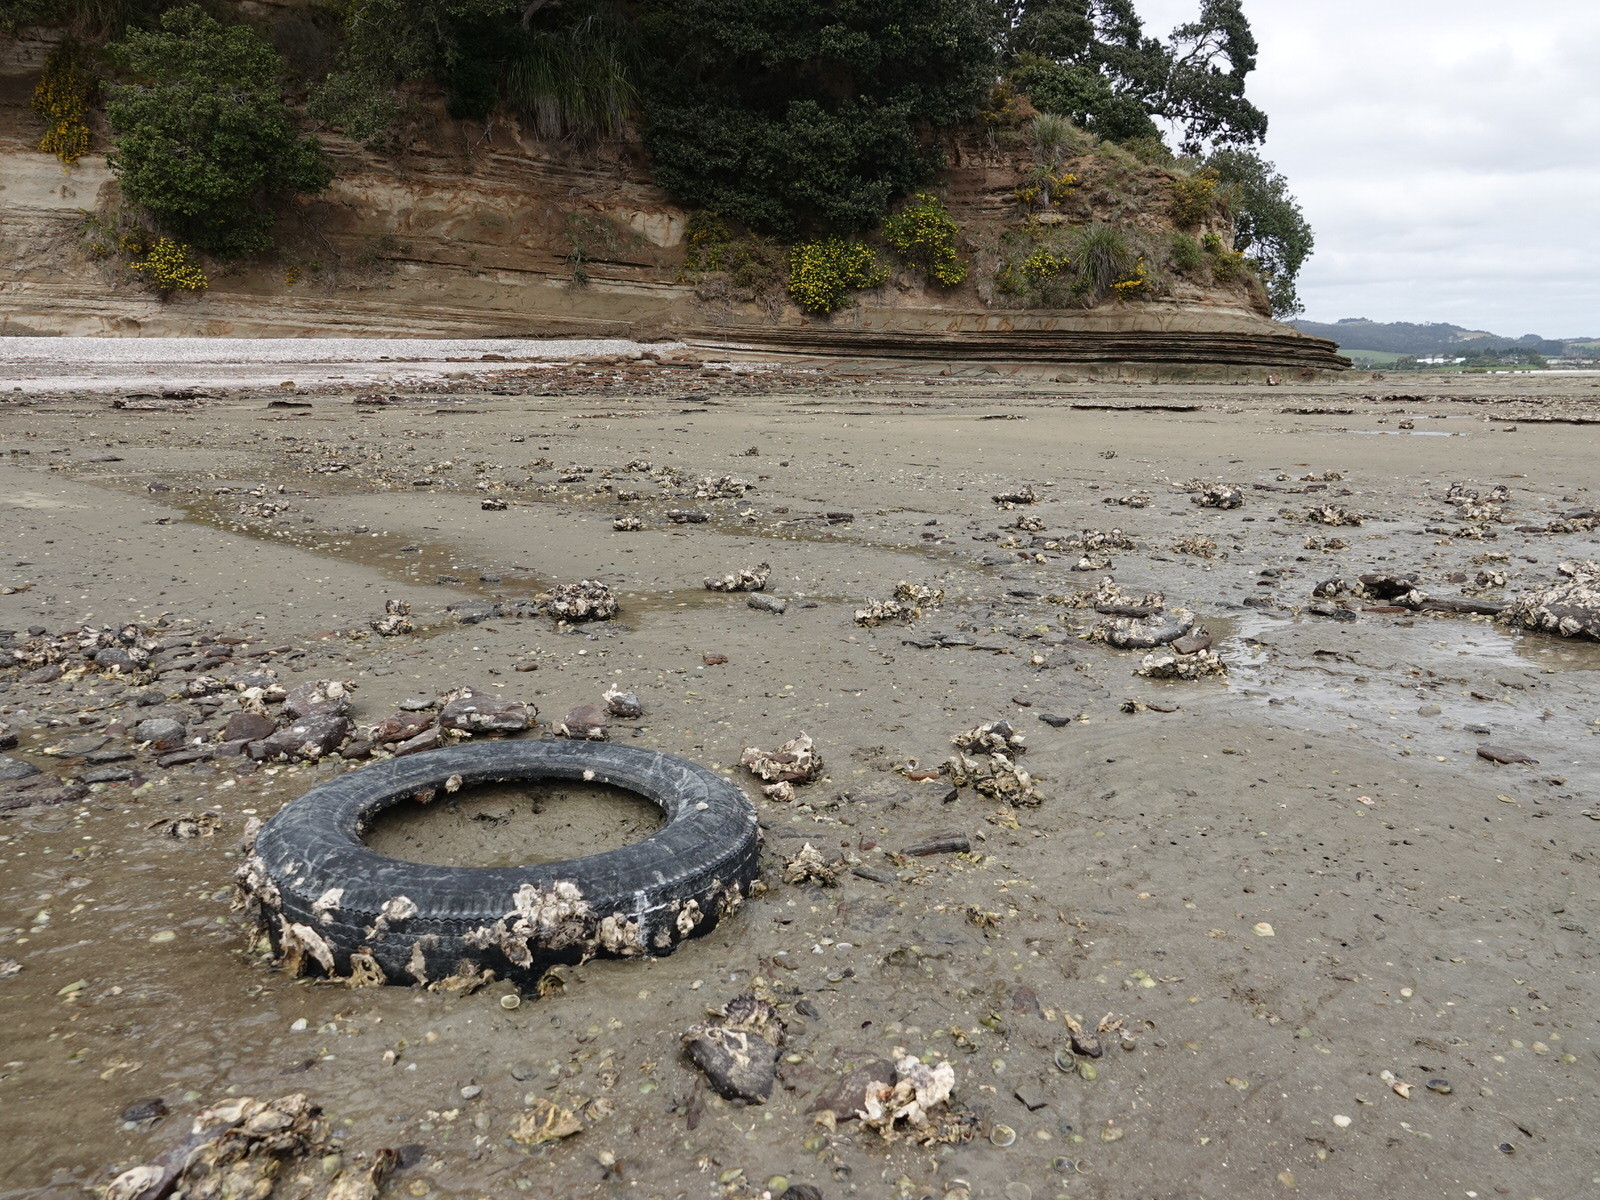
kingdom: Animalia
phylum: Mollusca
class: Gastropoda
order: Neogastropoda
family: Cominellidae
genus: Cominella
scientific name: Cominella glandiformis
